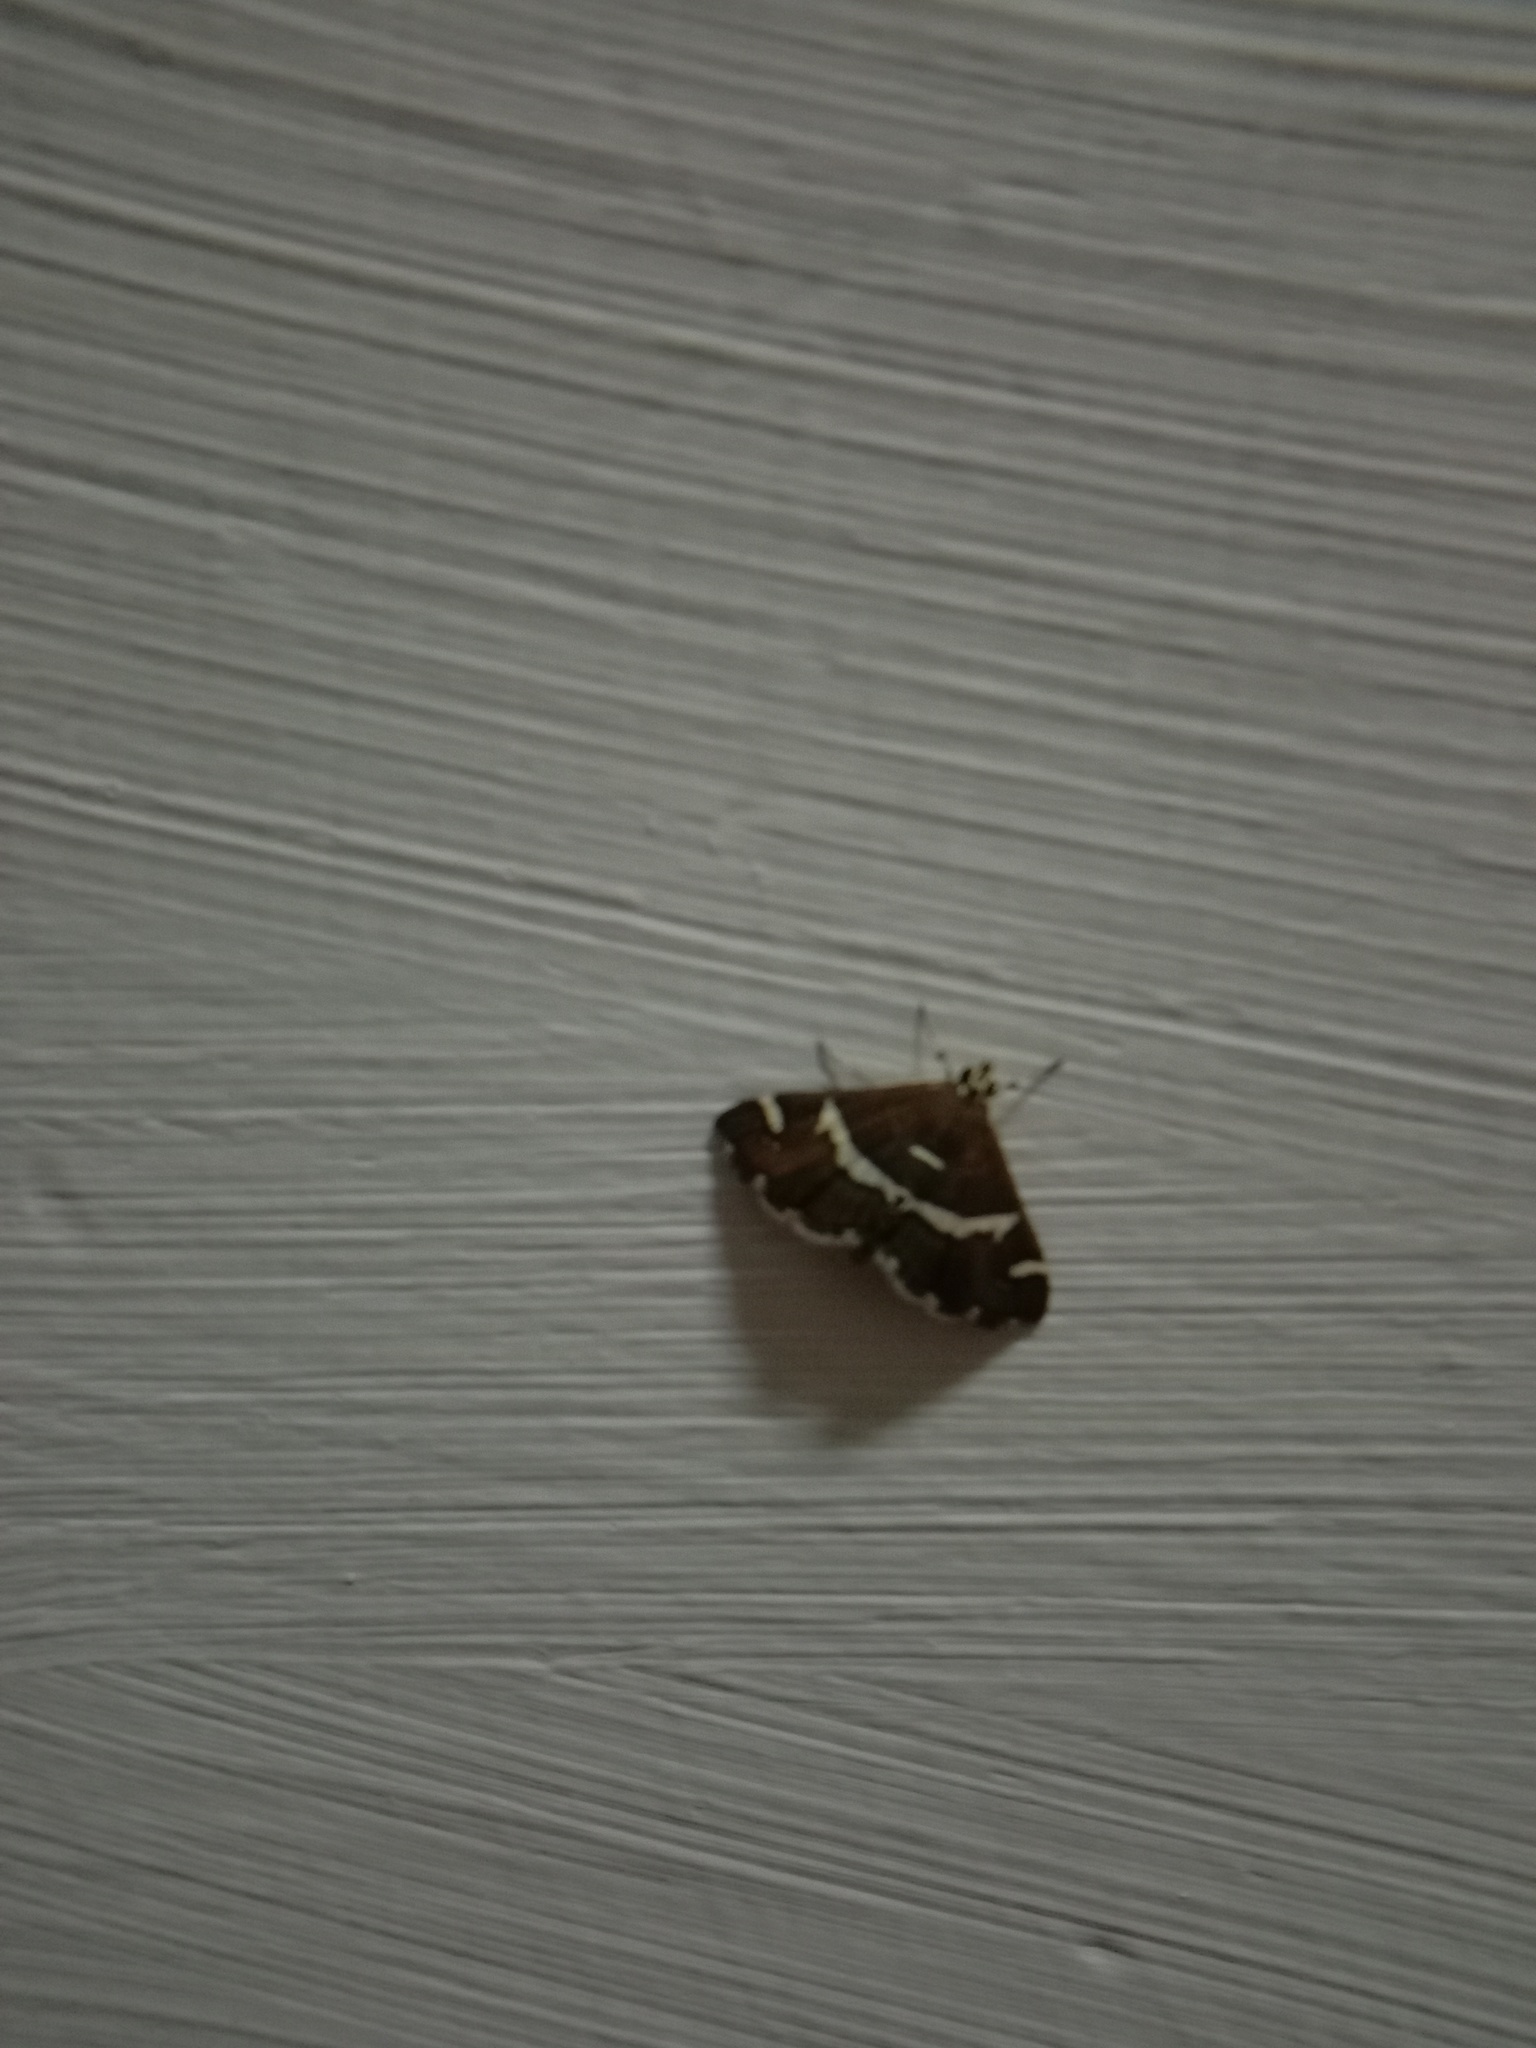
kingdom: Animalia
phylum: Arthropoda
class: Insecta
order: Lepidoptera
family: Crambidae
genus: Spoladea
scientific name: Spoladea recurvalis
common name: Beet webworm moth
